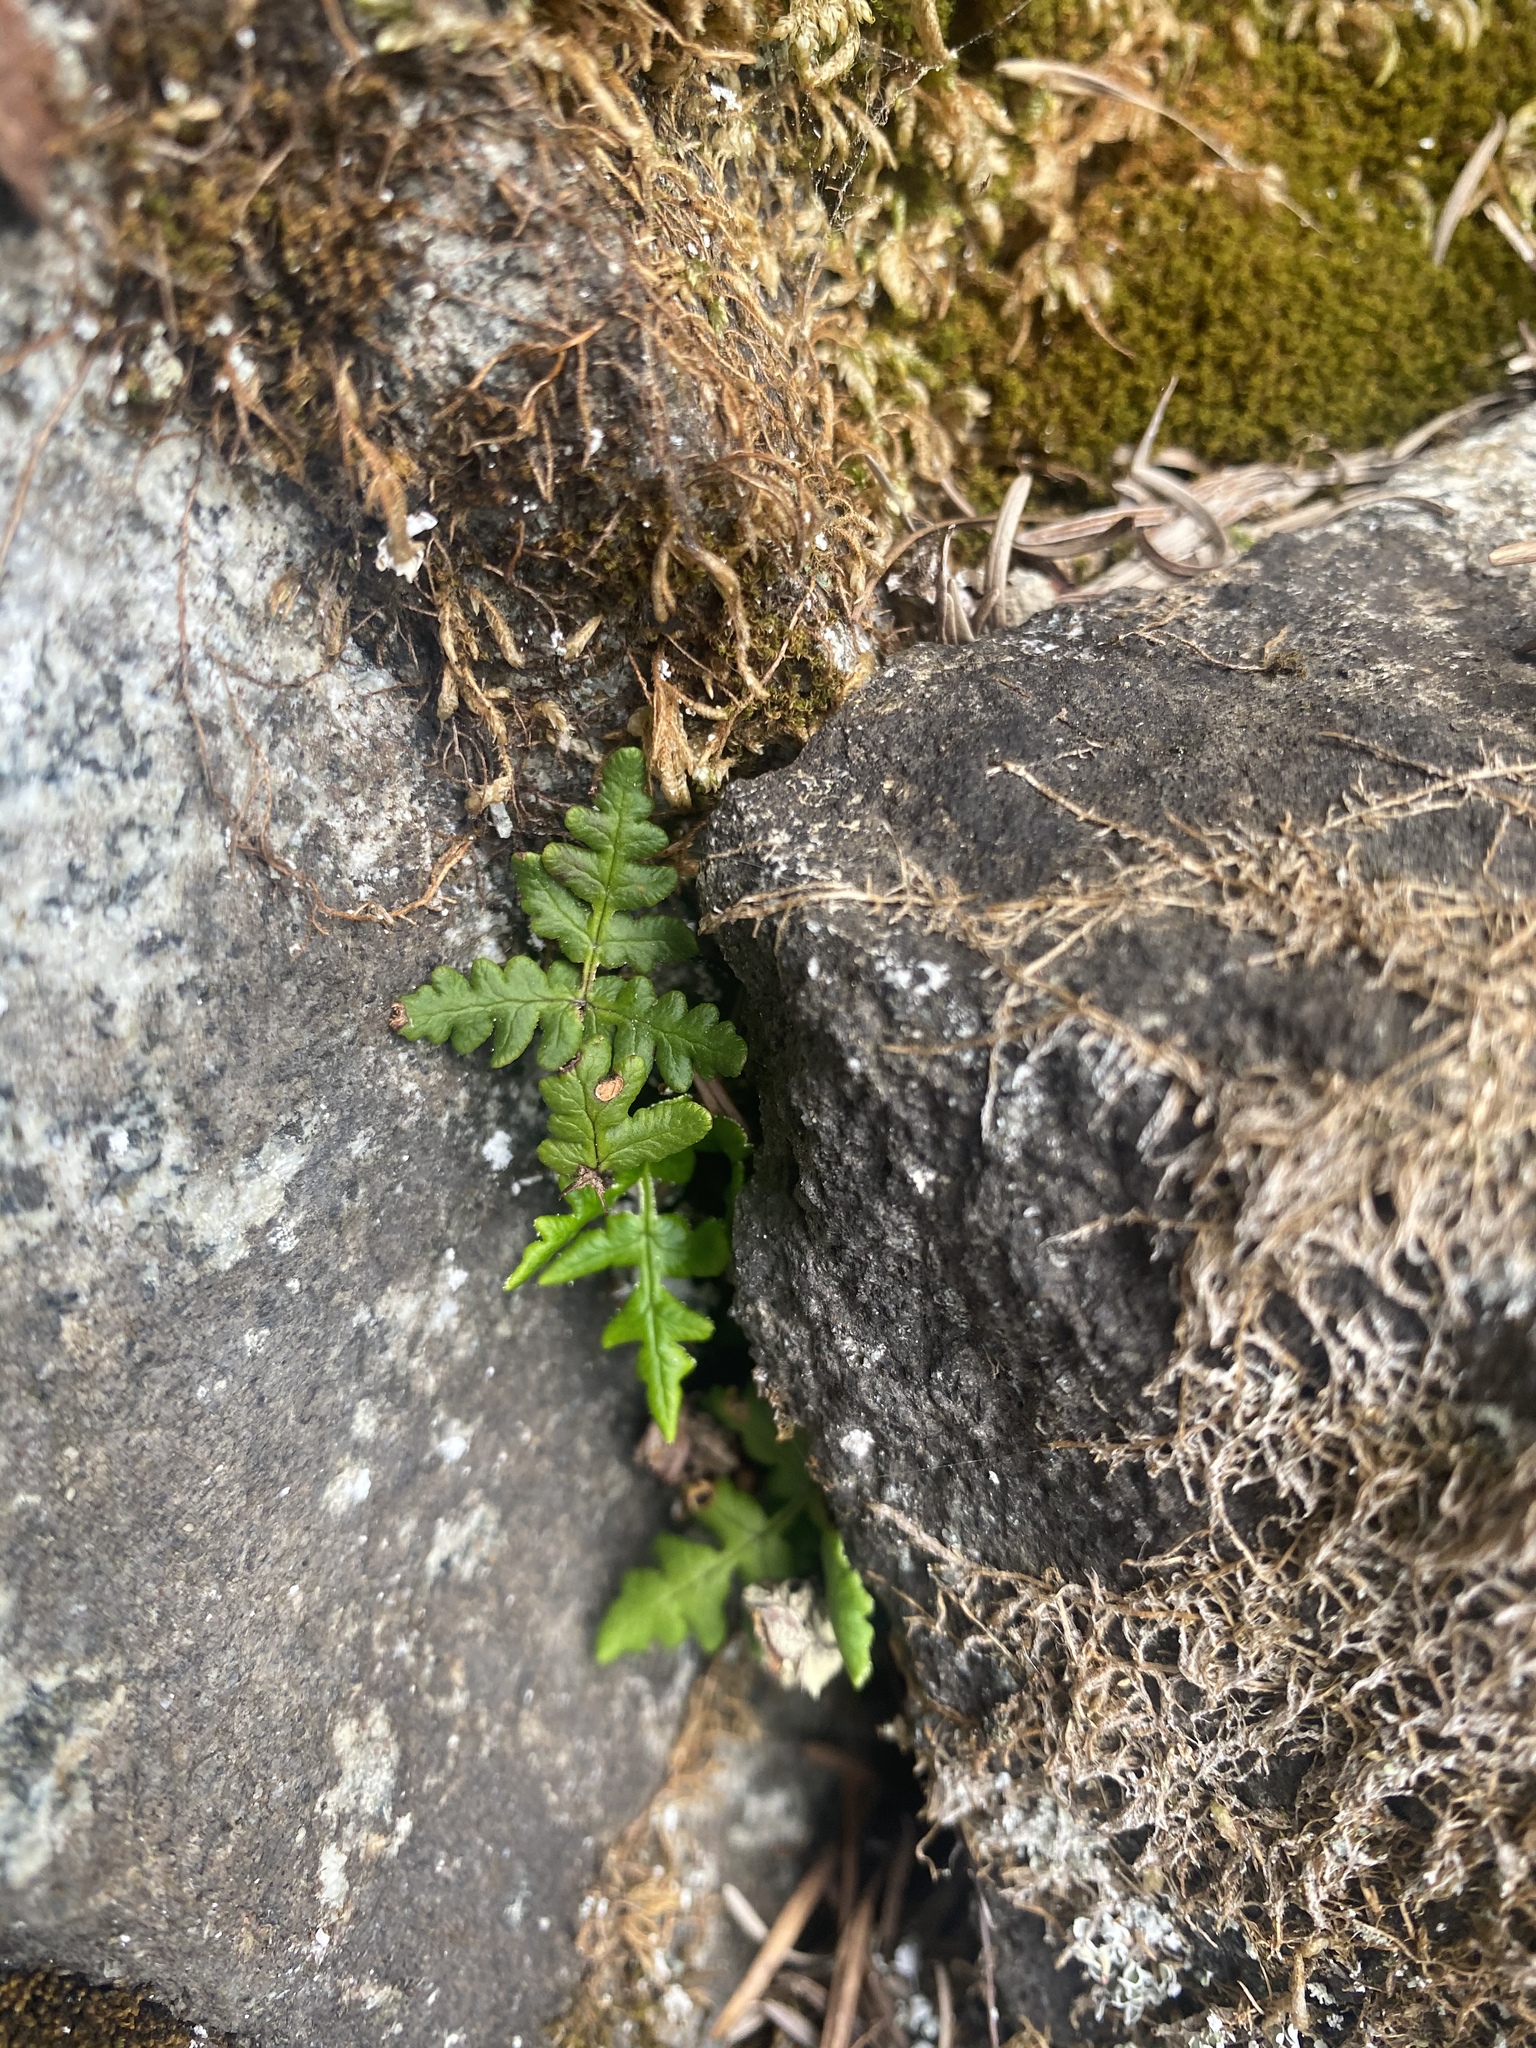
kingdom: Plantae
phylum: Tracheophyta
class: Polypodiopsida
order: Polypodiales
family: Pteridaceae
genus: Pentagramma
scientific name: Pentagramma triangularis
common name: Gold fern
